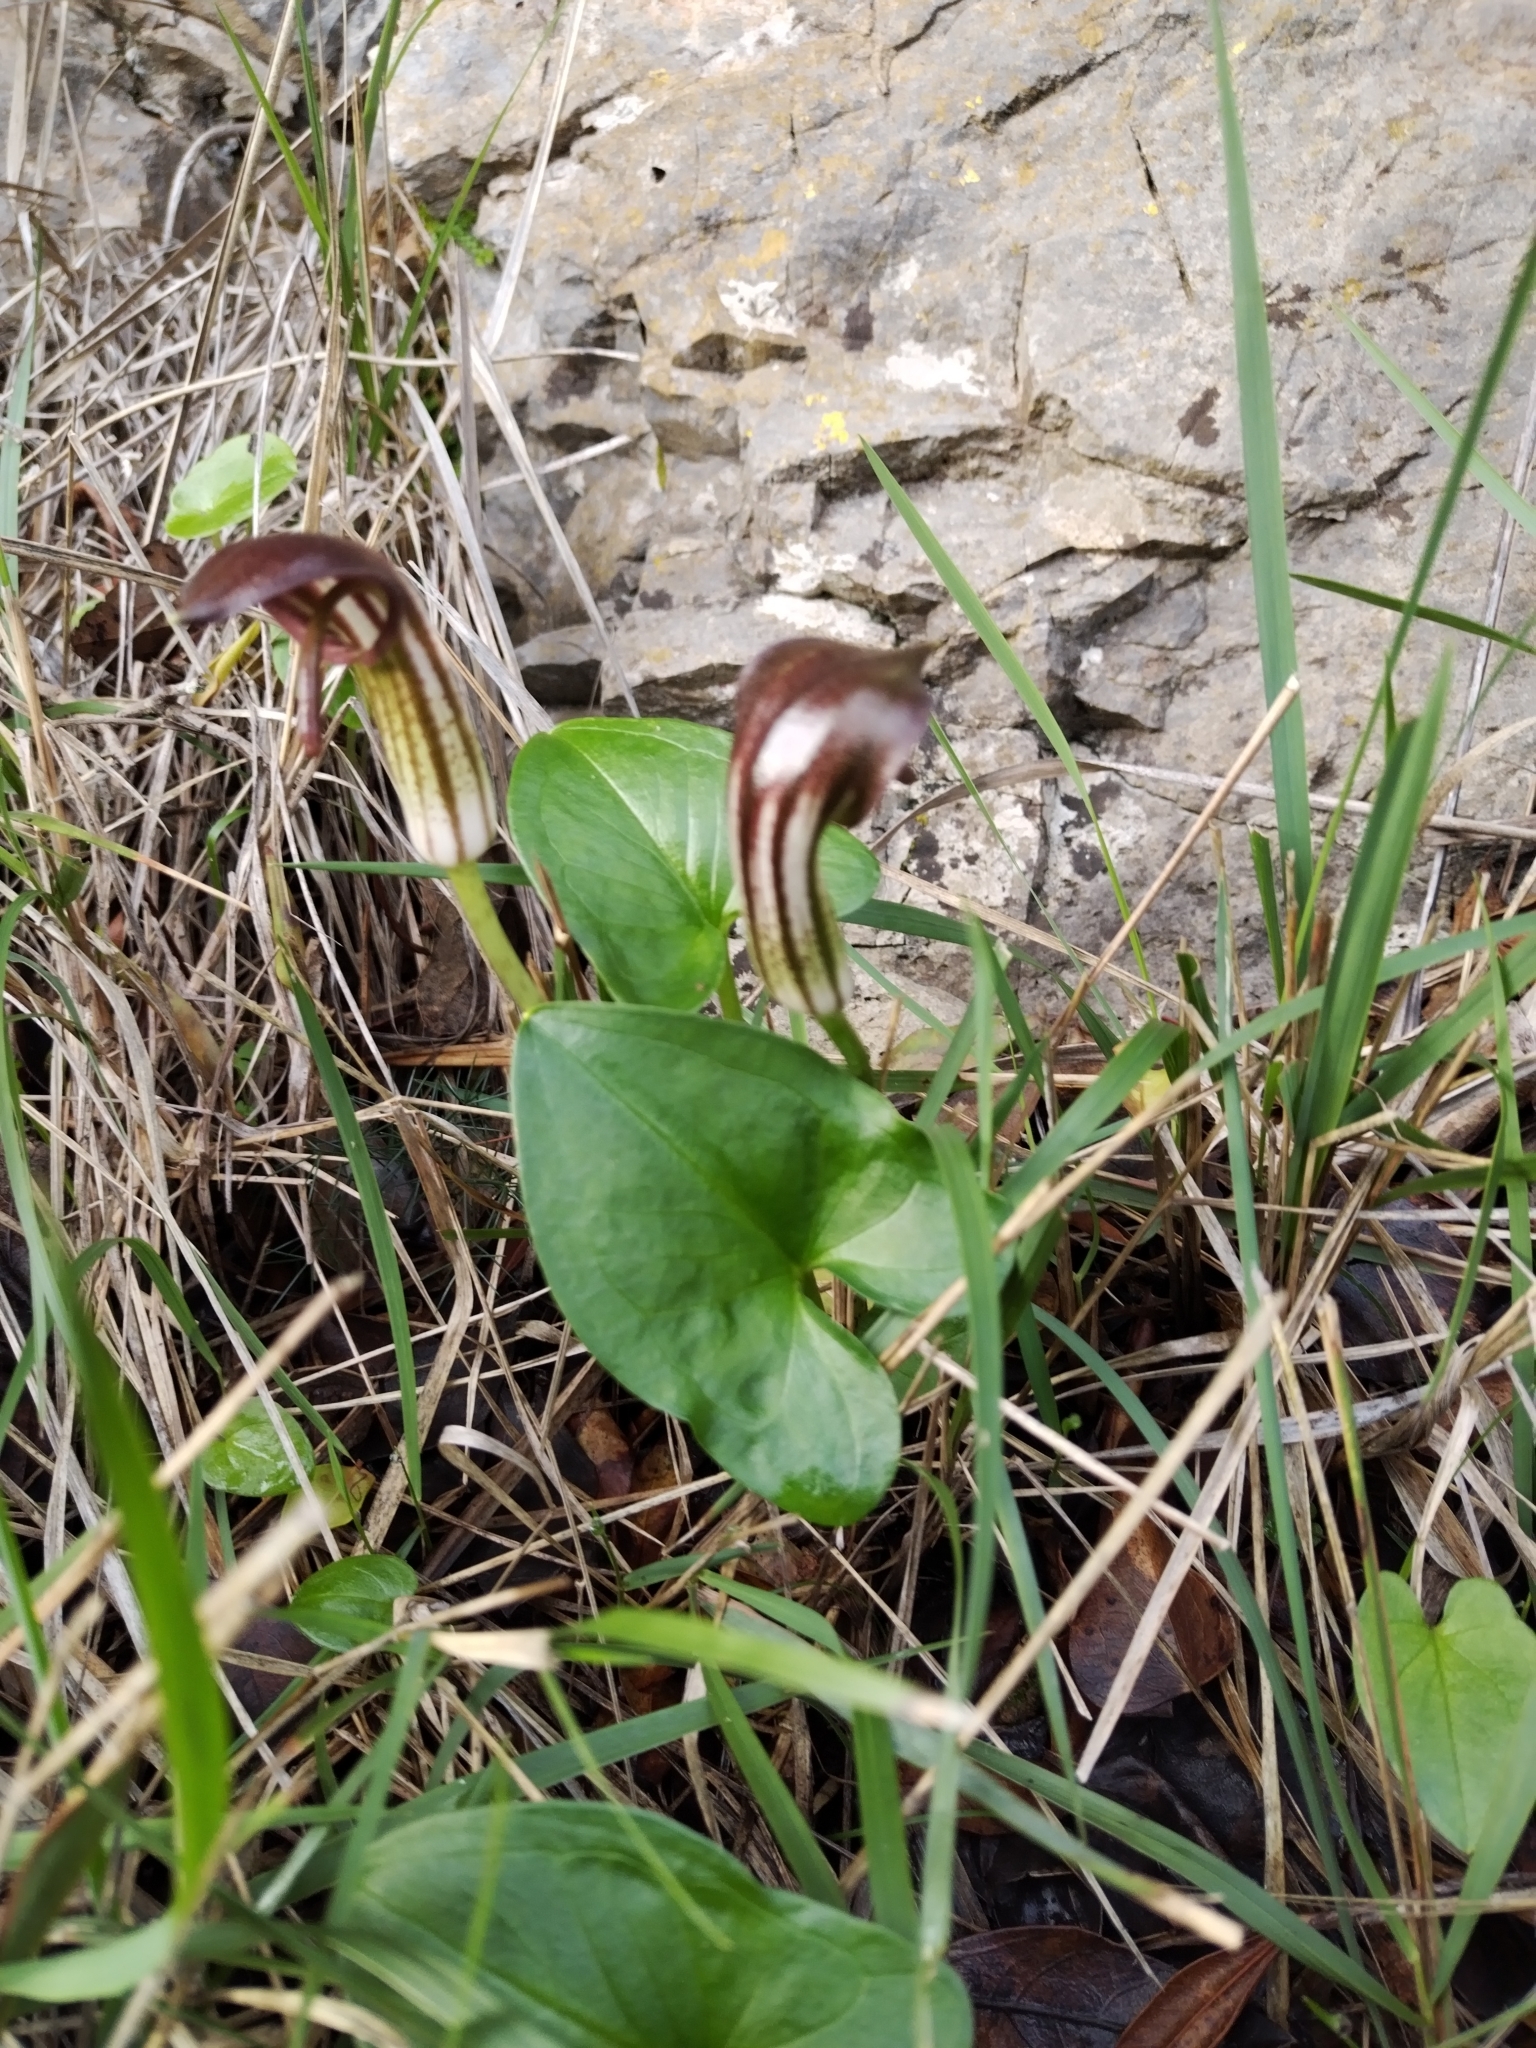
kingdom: Plantae
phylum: Tracheophyta
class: Liliopsida
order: Alismatales
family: Araceae
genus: Arisarum
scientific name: Arisarum vulgare
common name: Common arisarum
